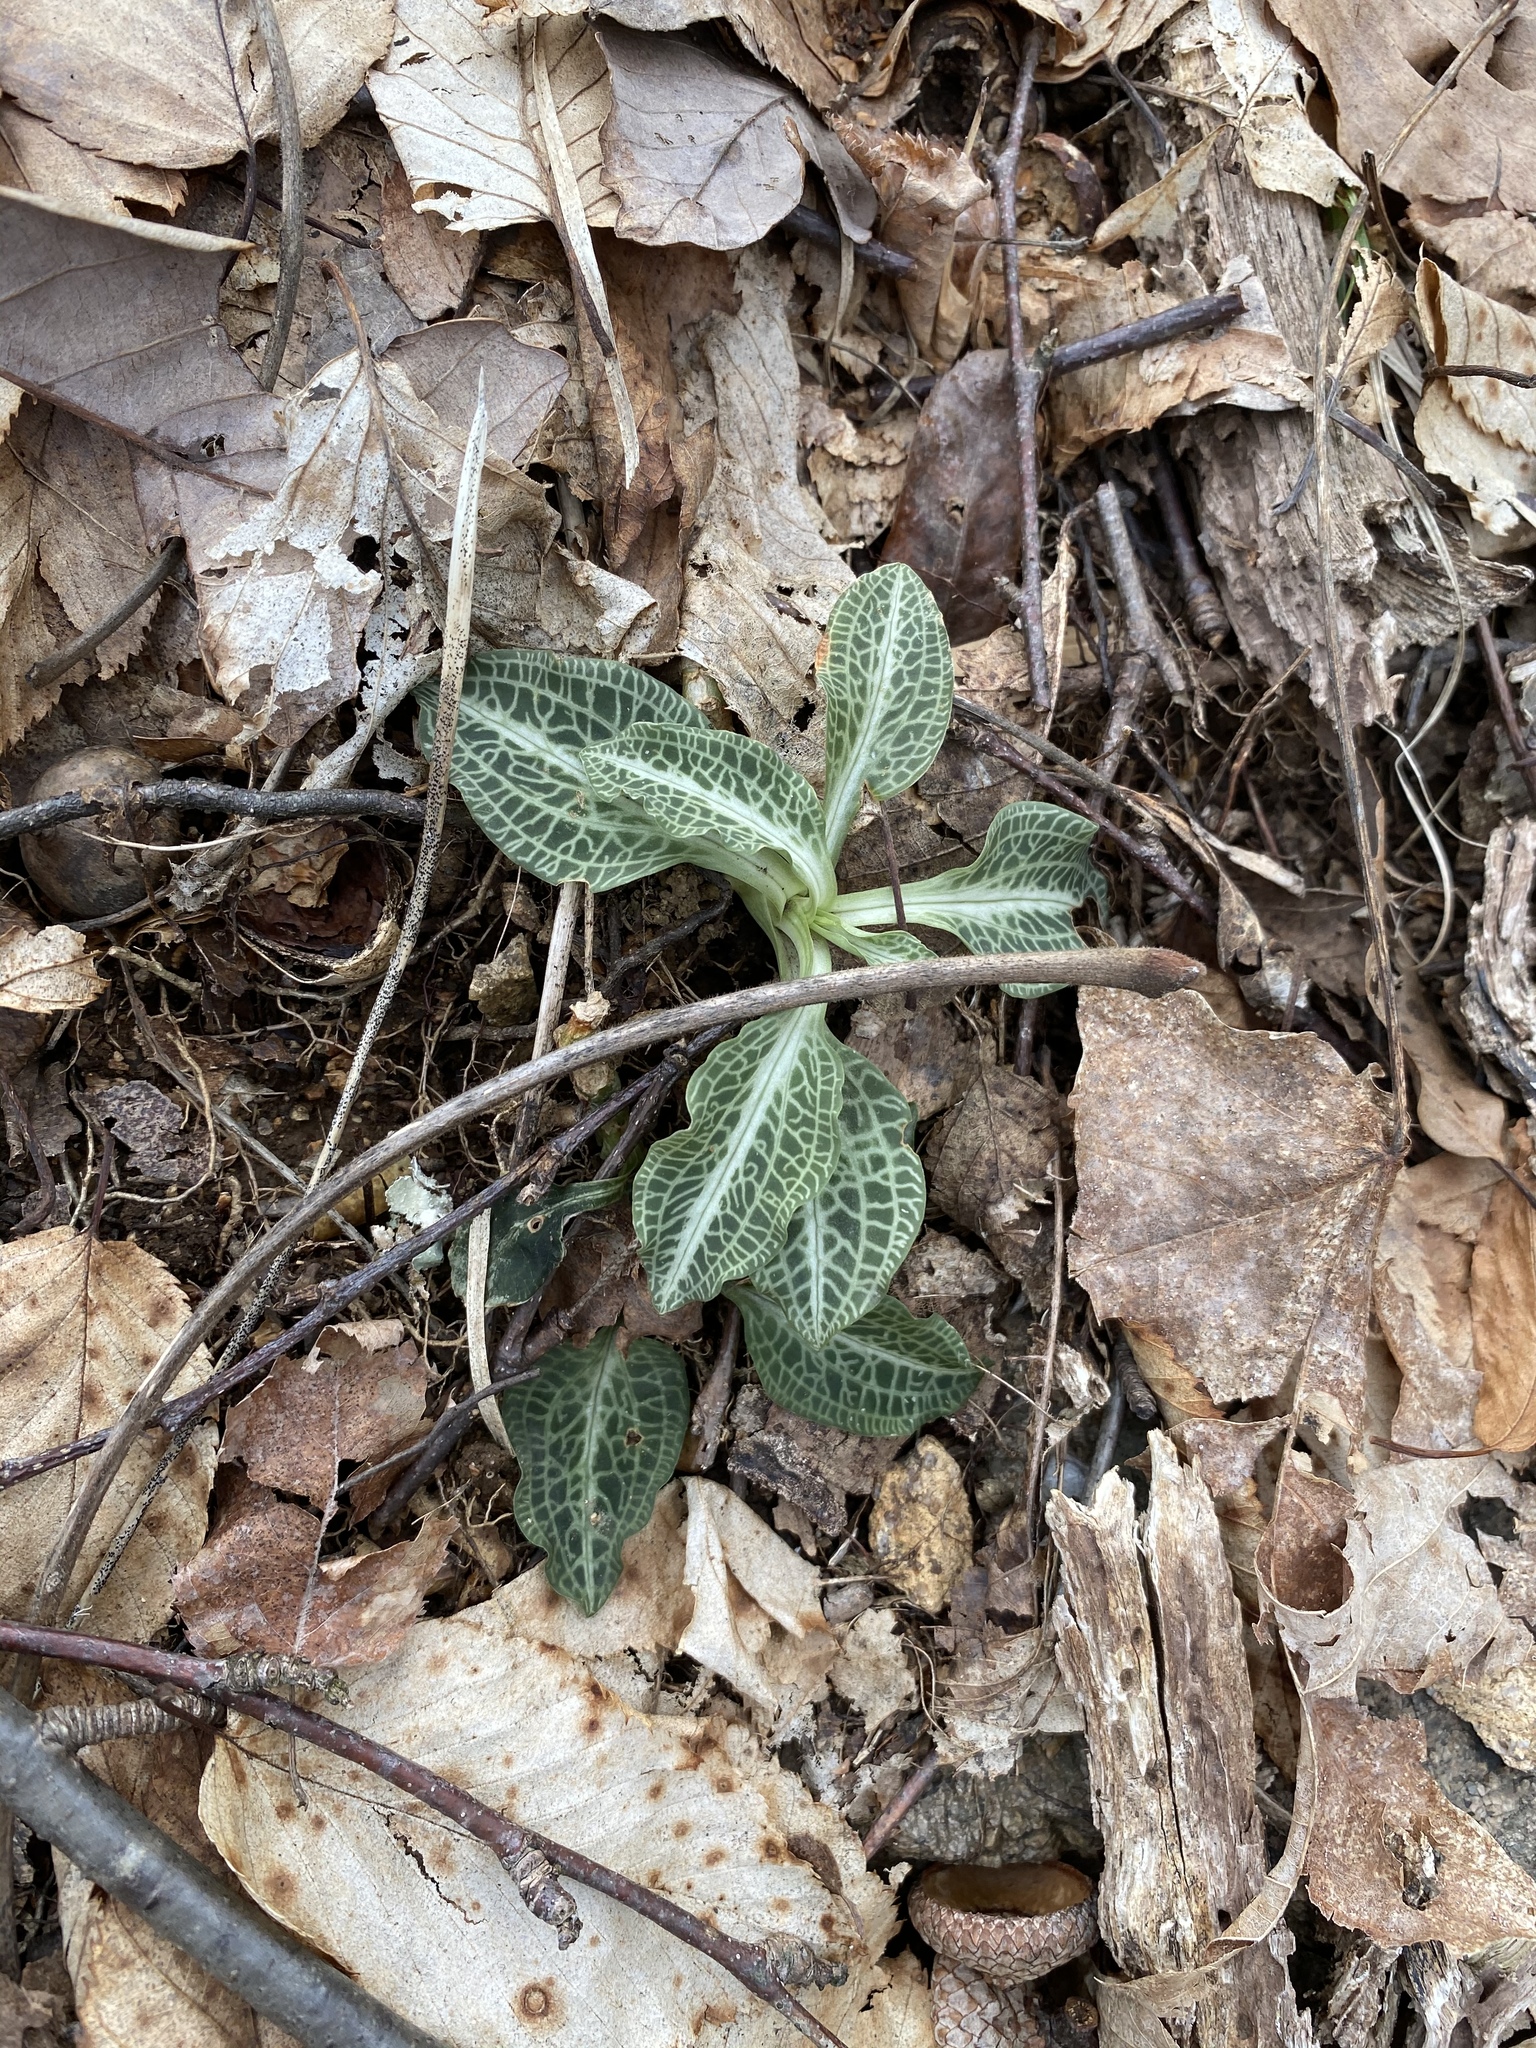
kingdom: Plantae
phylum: Tracheophyta
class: Liliopsida
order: Asparagales
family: Orchidaceae
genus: Goodyera
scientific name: Goodyera pubescens
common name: Downy rattlesnake-plantain
